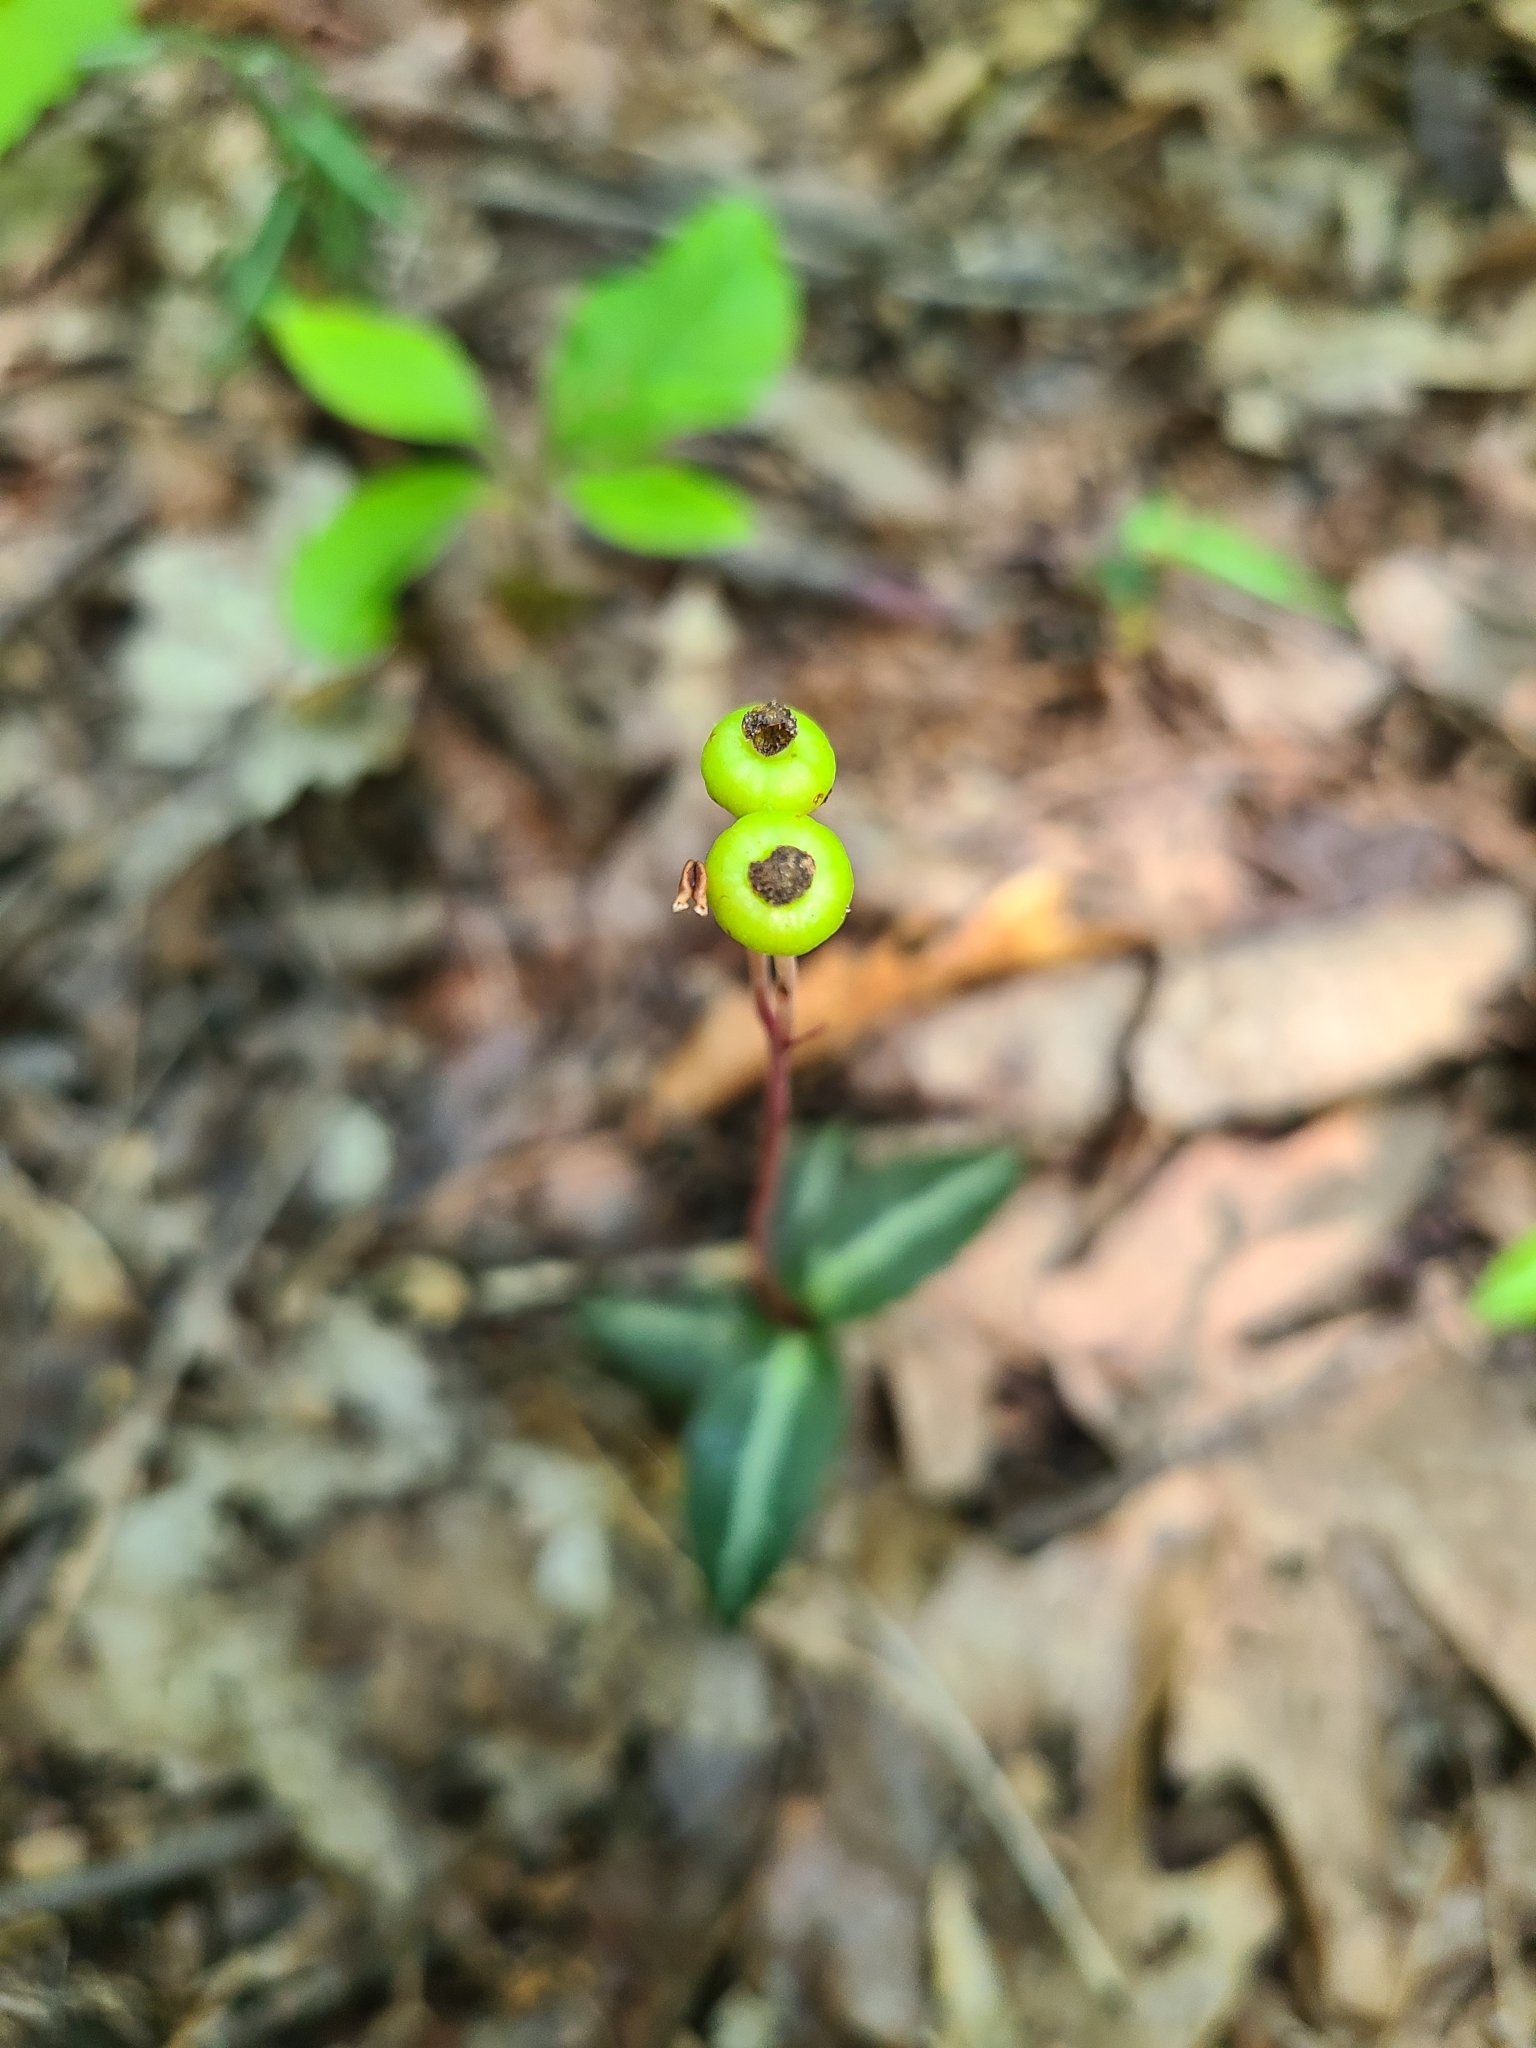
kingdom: Plantae
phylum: Tracheophyta
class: Magnoliopsida
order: Ericales
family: Ericaceae
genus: Chimaphila
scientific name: Chimaphila maculata
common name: Spotted pipsissewa
